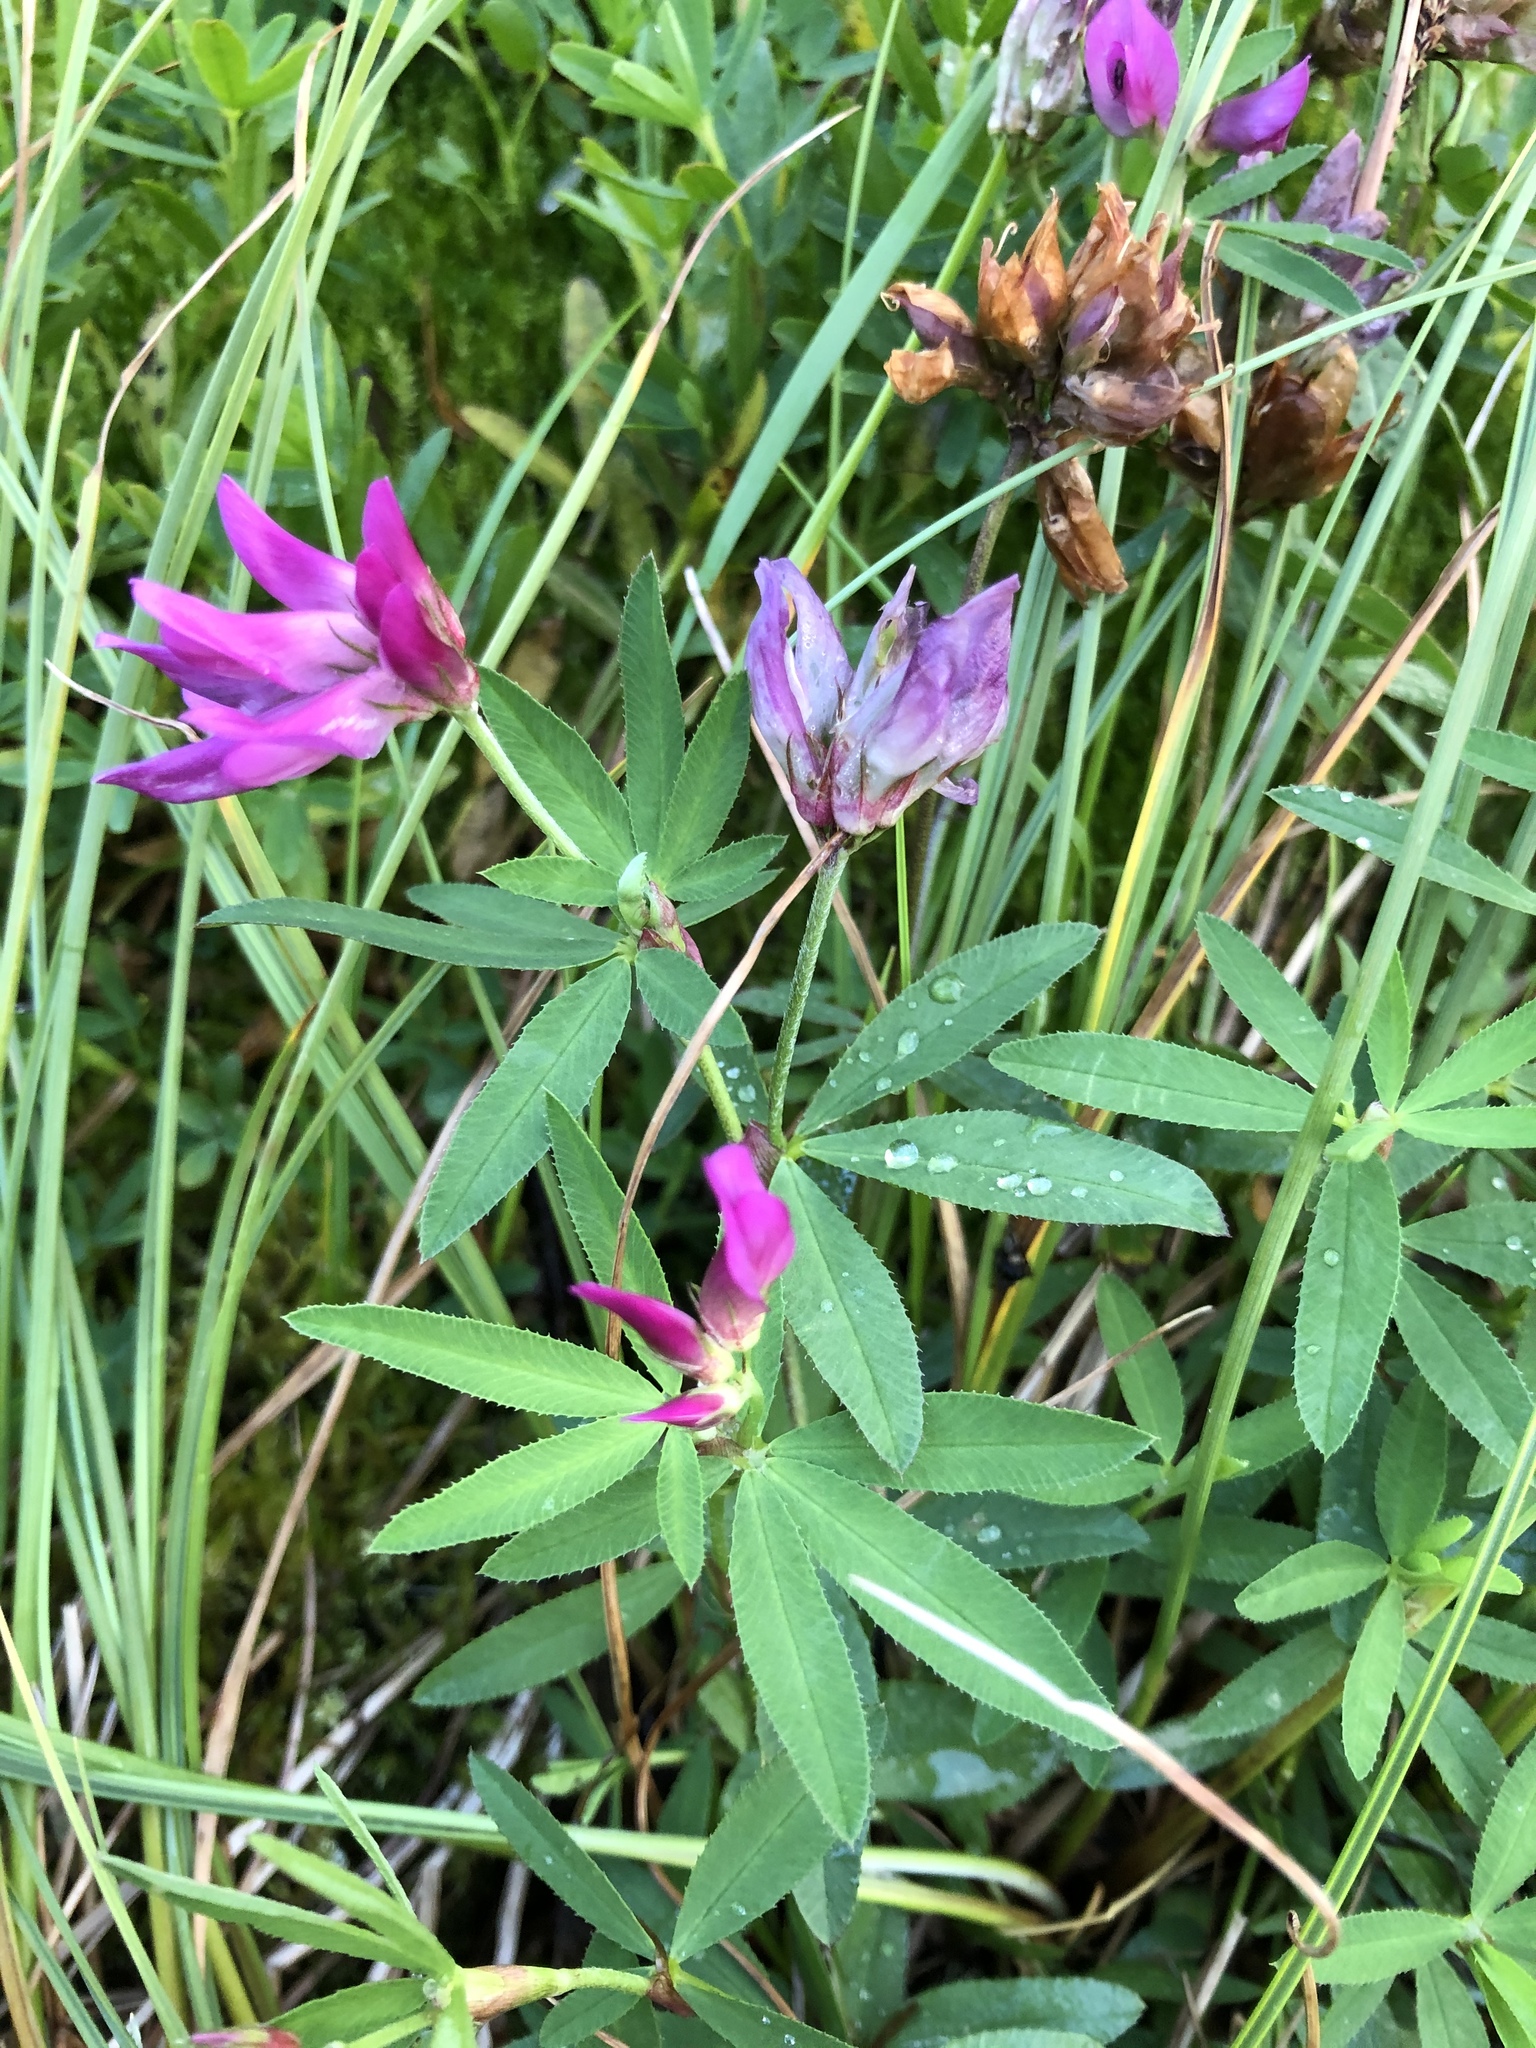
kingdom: Plantae
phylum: Tracheophyta
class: Magnoliopsida
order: Fabales
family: Fabaceae
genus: Trifolium
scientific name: Trifolium lupinaster
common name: Lupine clover
